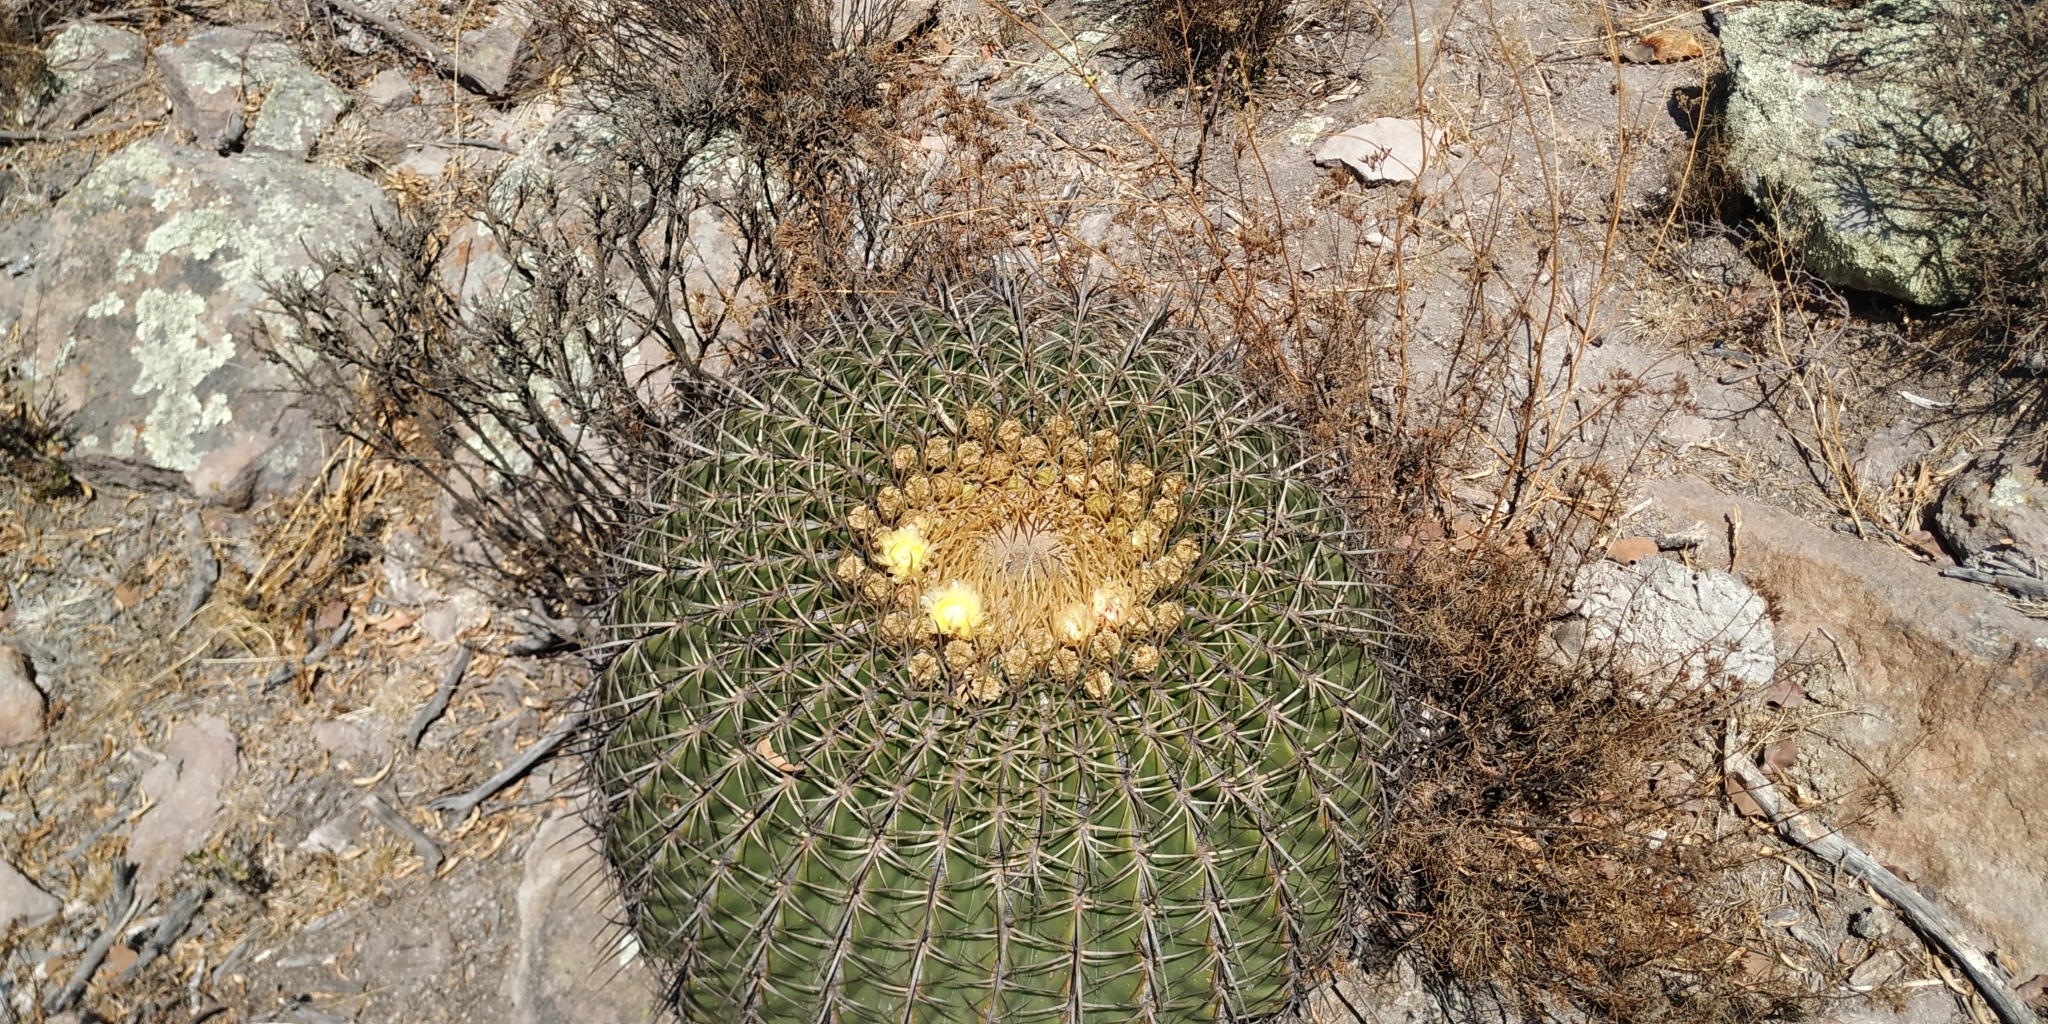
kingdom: Plantae
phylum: Tracheophyta
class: Magnoliopsida
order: Caryophyllales
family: Cactaceae
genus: Bisnaga
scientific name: Bisnaga histrix
